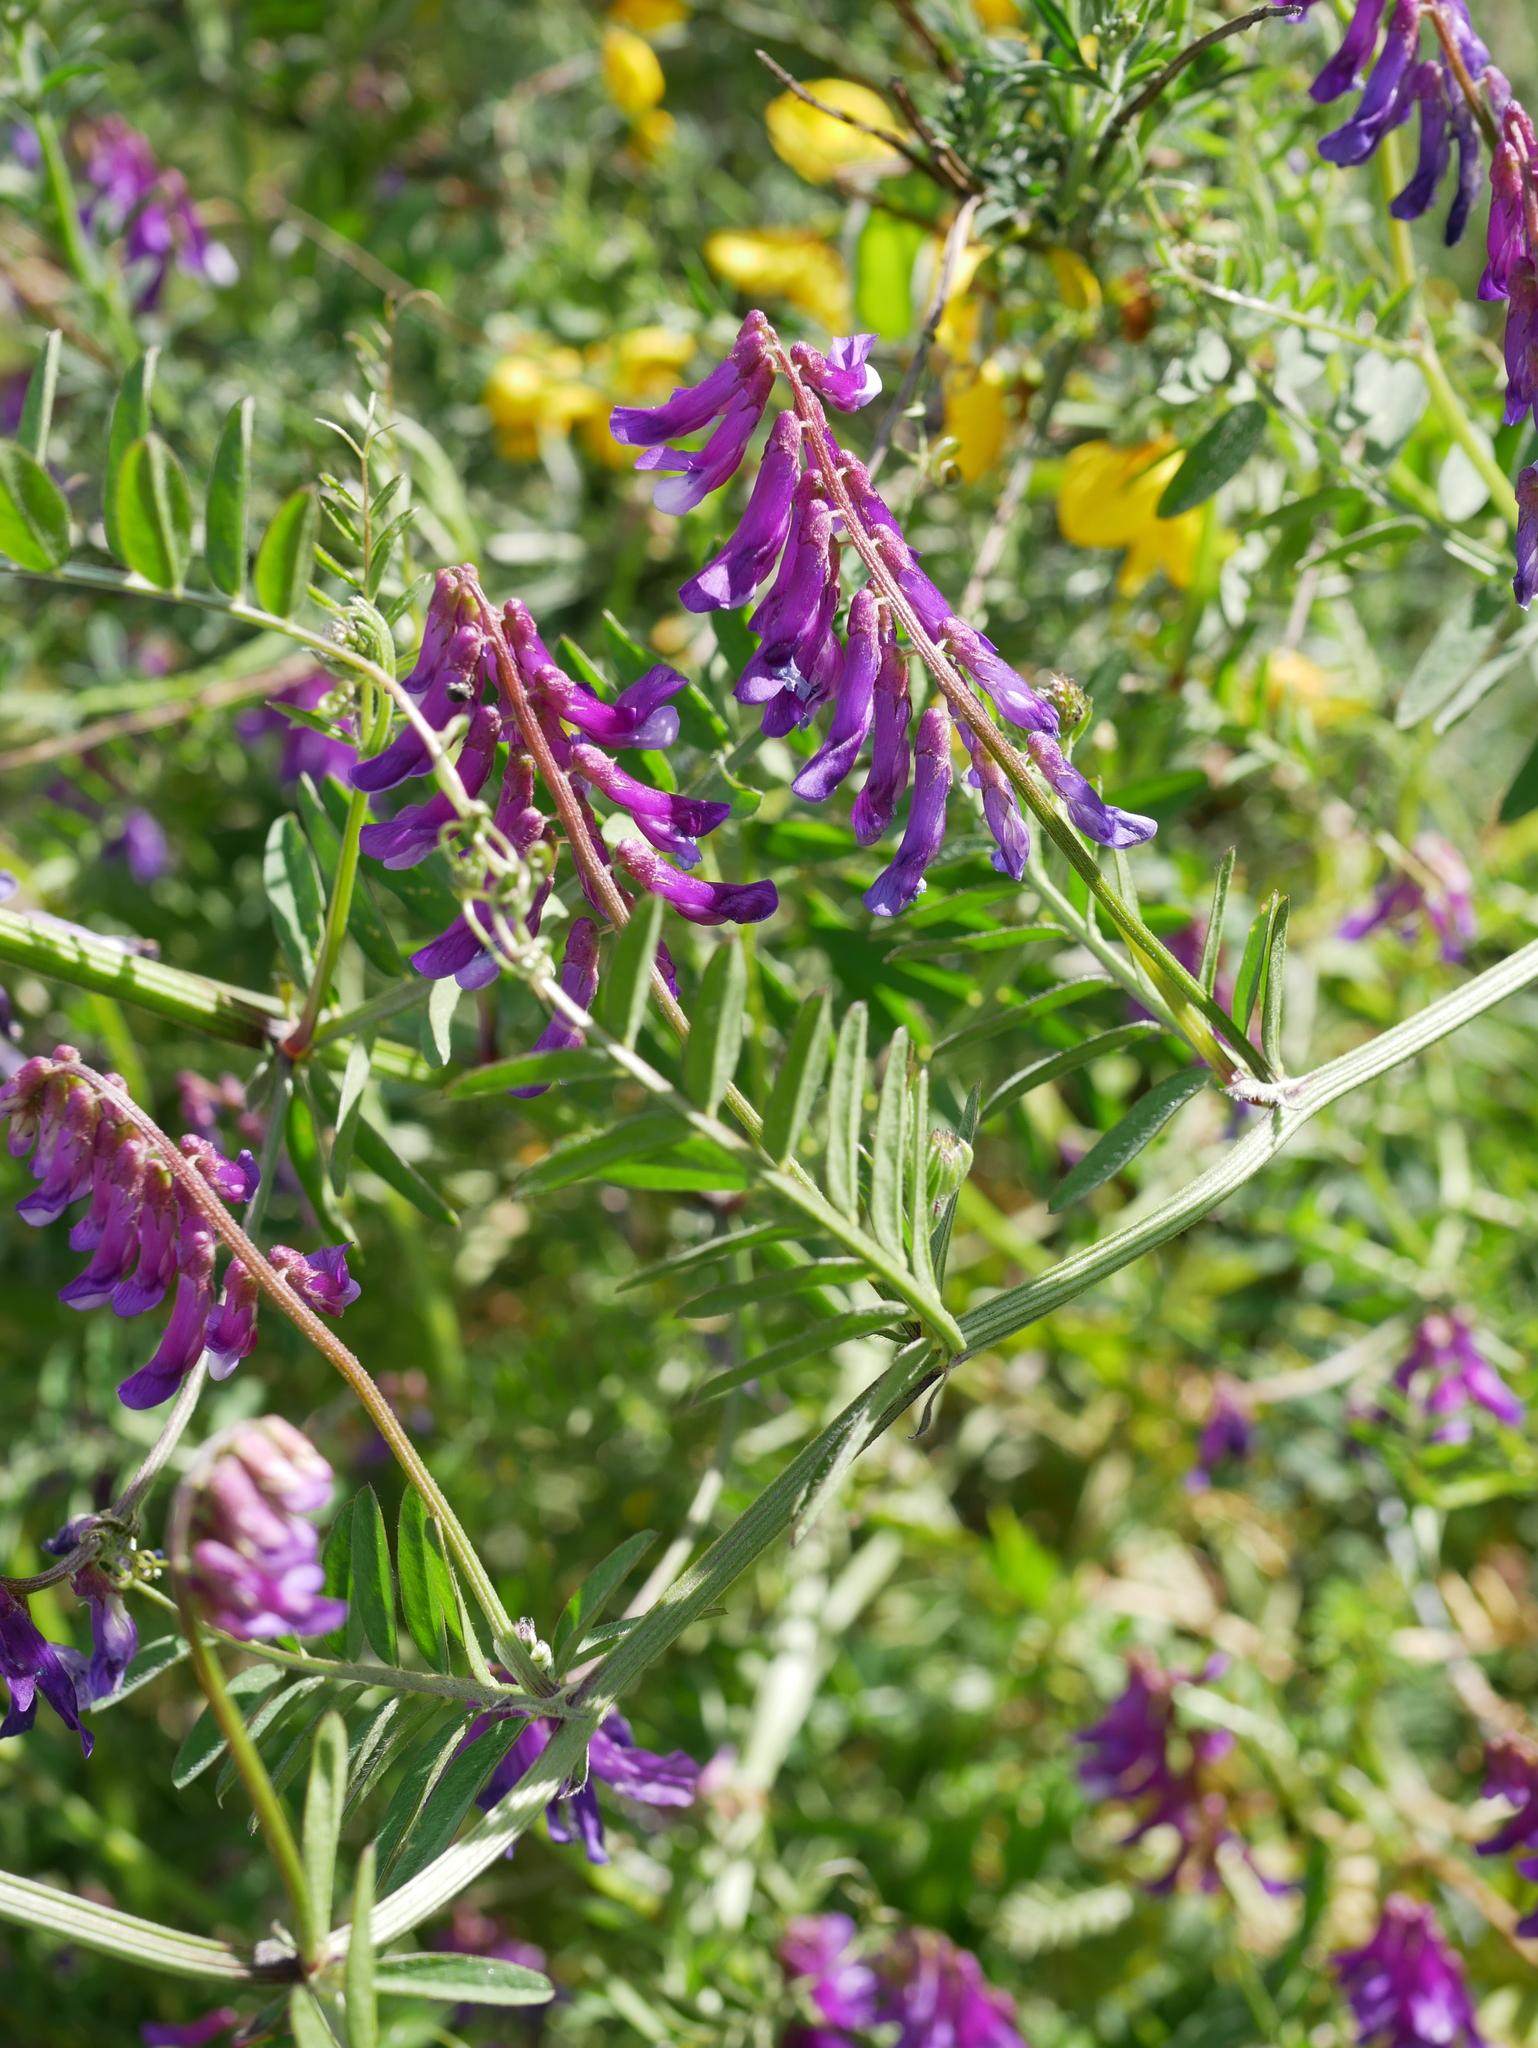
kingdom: Plantae
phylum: Tracheophyta
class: Magnoliopsida
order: Fabales
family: Fabaceae
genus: Vicia
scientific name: Vicia villosa
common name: Fodder vetch
